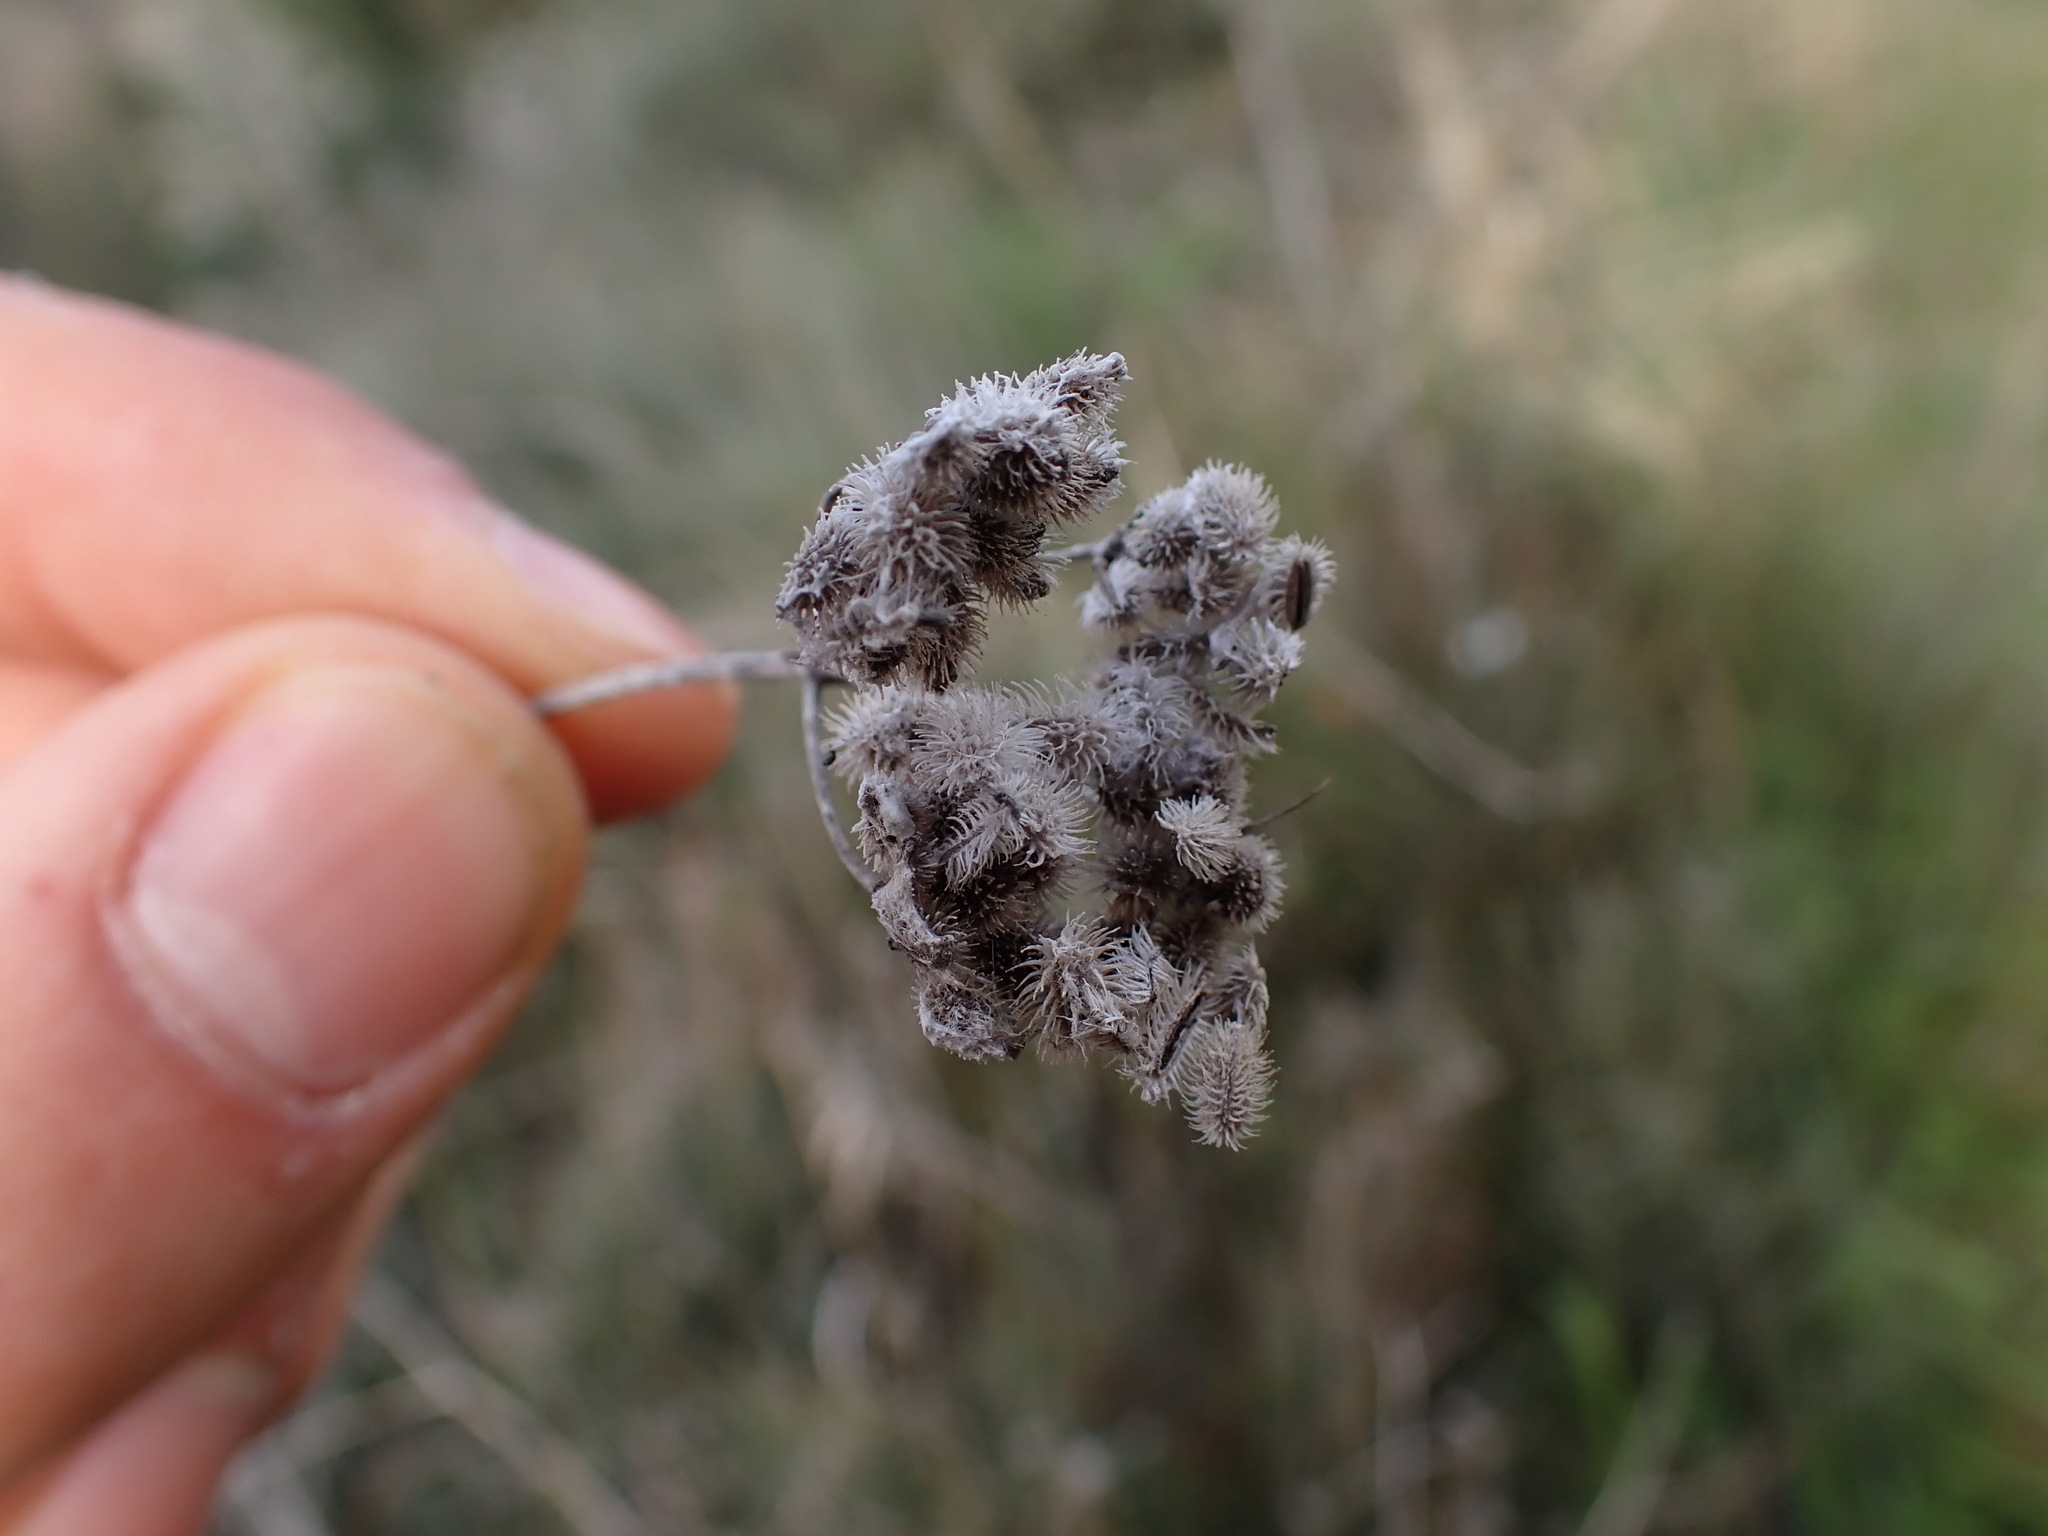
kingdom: Plantae
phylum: Tracheophyta
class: Magnoliopsida
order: Apiales
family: Apiaceae
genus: Torilis
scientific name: Torilis arvensis
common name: Spreading hedge-parsley
